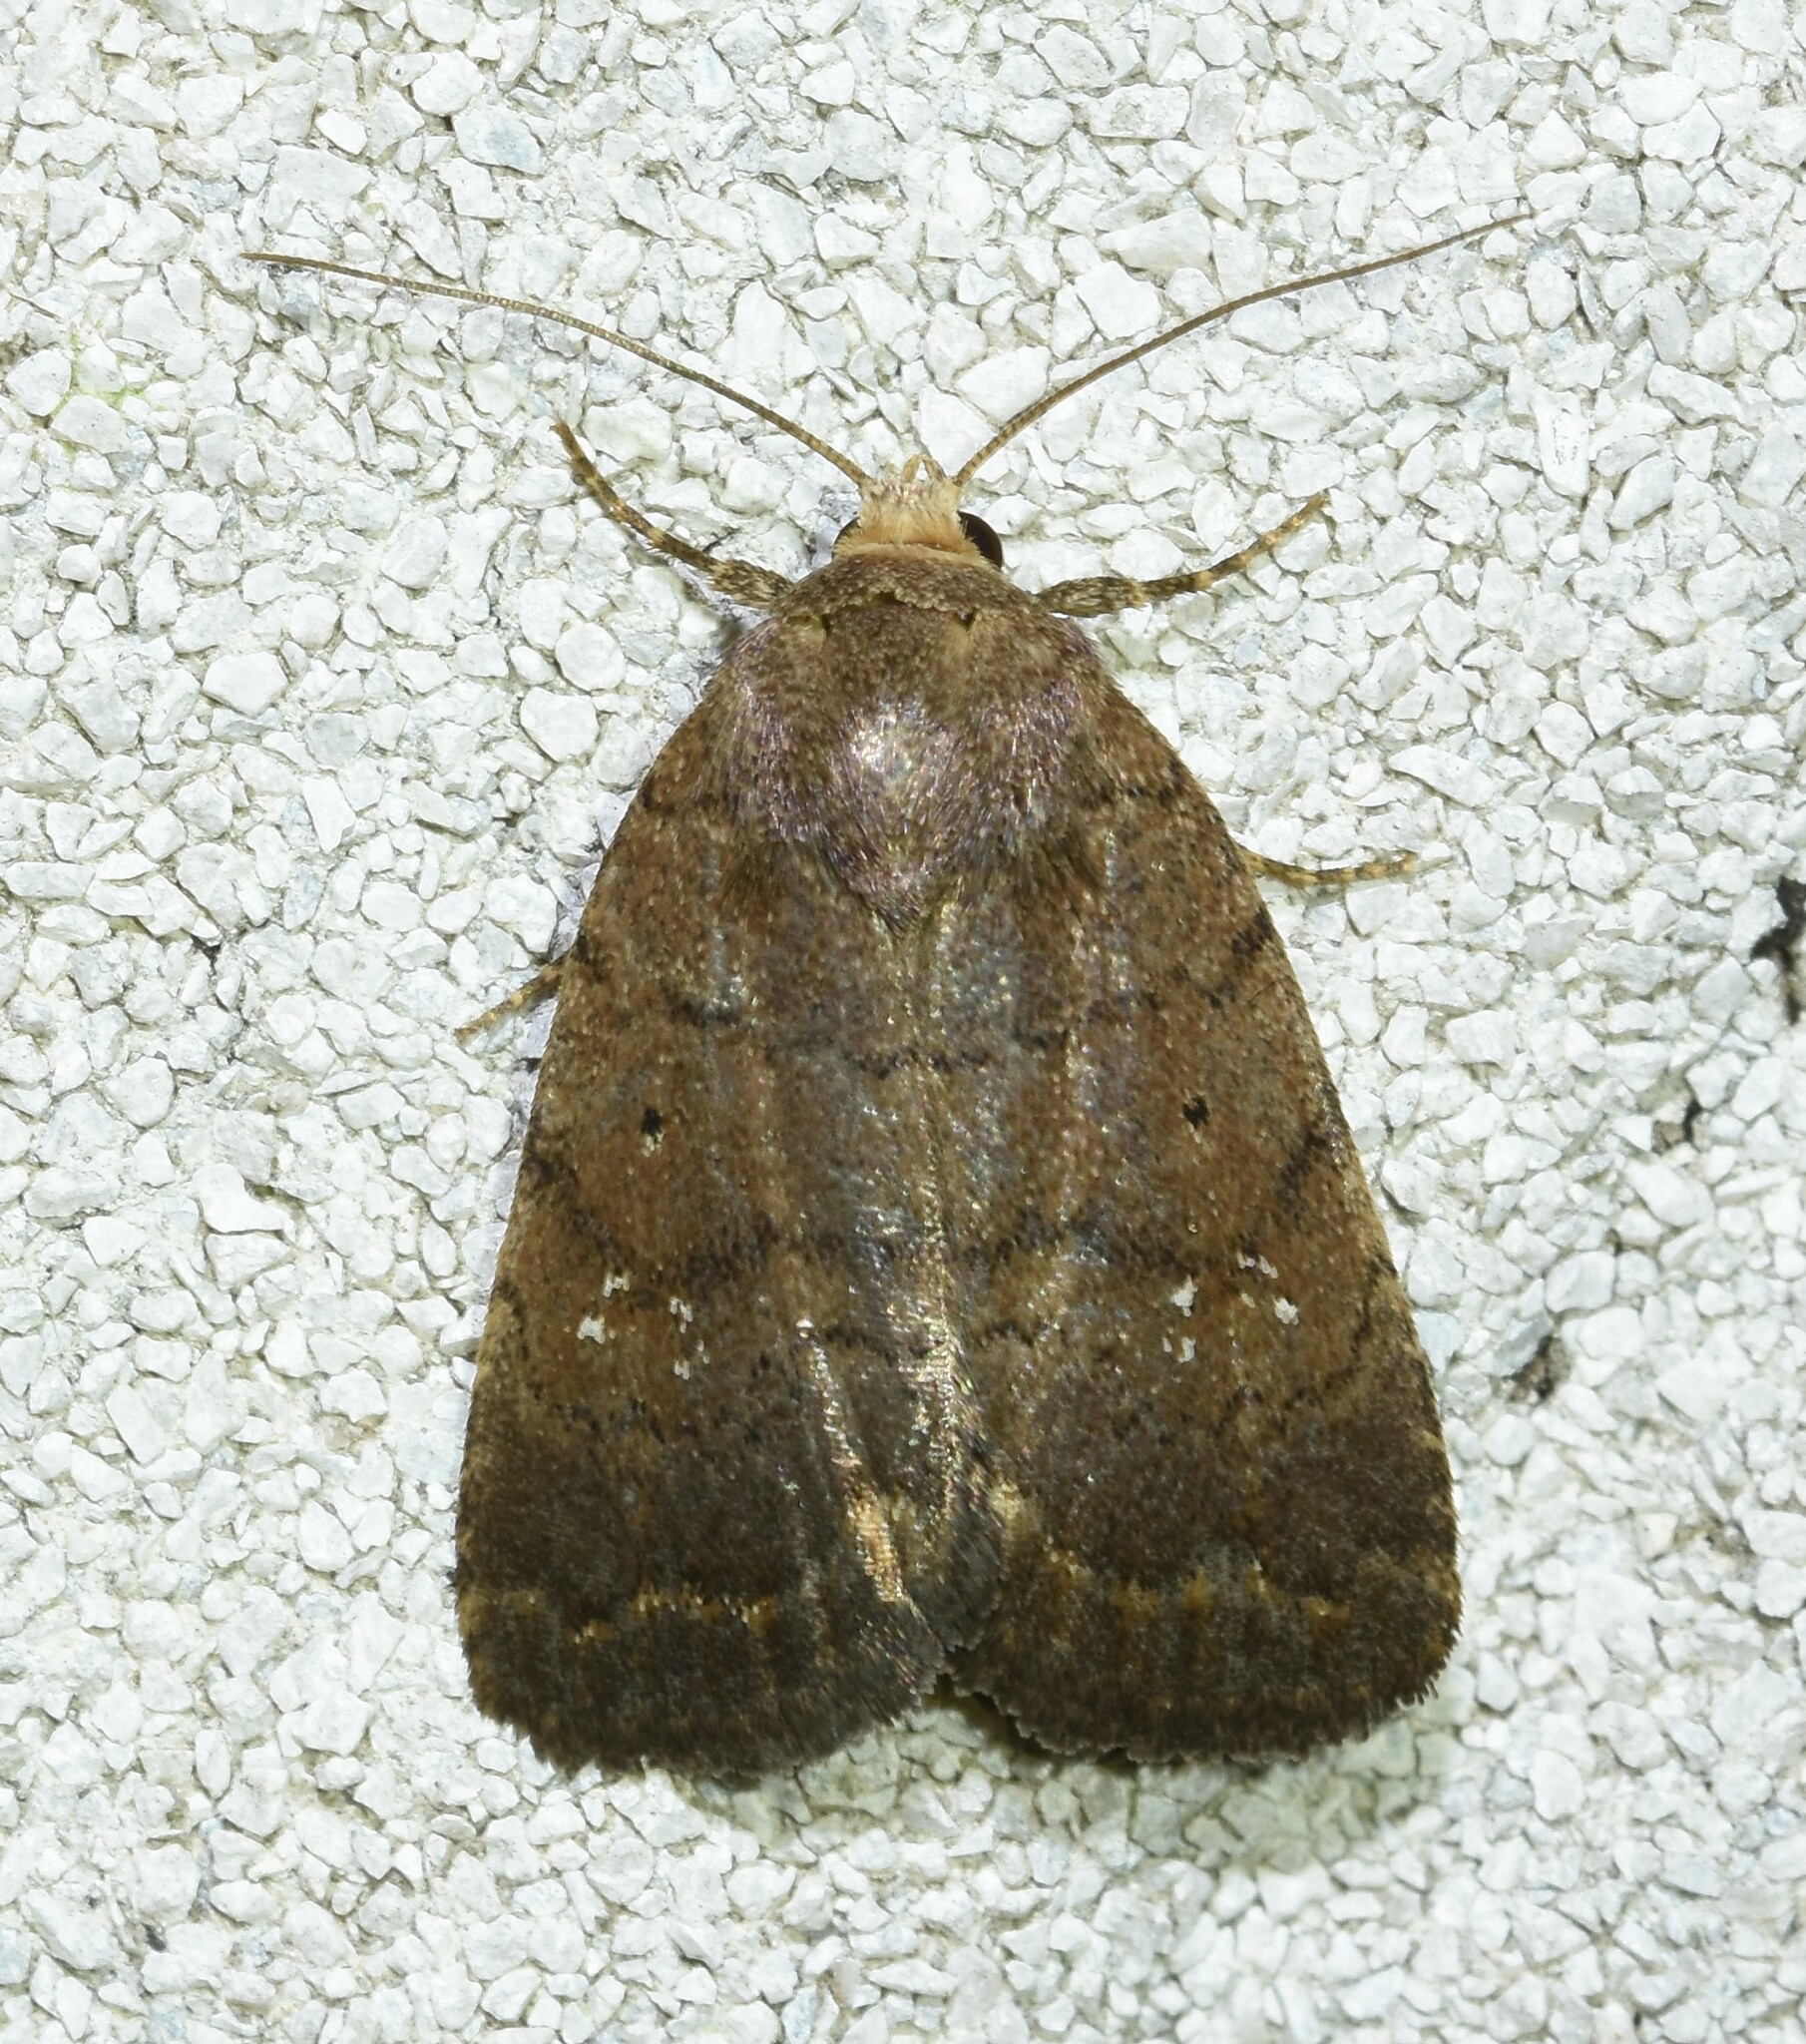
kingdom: Animalia
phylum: Arthropoda
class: Insecta
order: Lepidoptera
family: Noctuidae
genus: Athetis
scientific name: Athetis tarda
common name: Slowpoke moth
